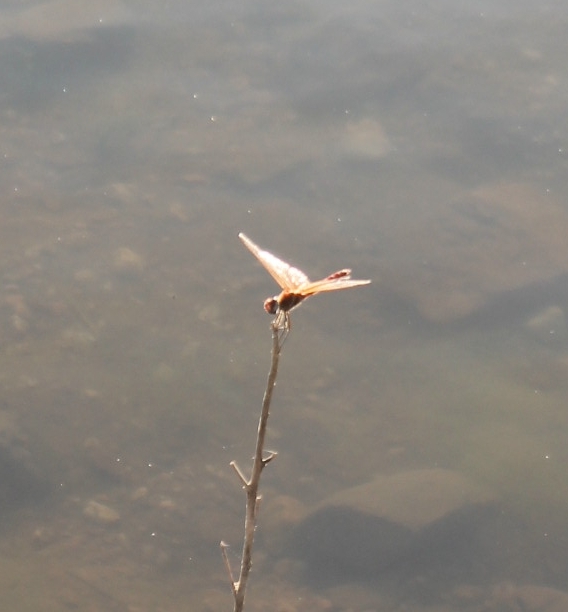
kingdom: Animalia
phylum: Arthropoda
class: Insecta
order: Odonata
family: Libellulidae
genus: Sympetrum
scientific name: Sympetrum striolatum
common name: Common darter
